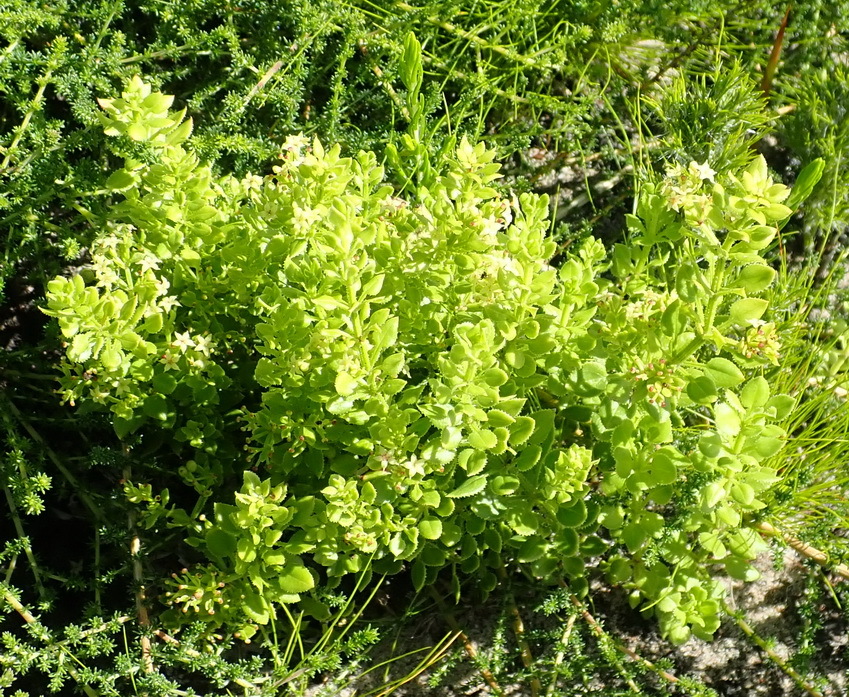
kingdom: Plantae
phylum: Tracheophyta
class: Magnoliopsida
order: Gentianales
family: Rubiaceae
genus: Rubia
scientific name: Rubia petiolaris
